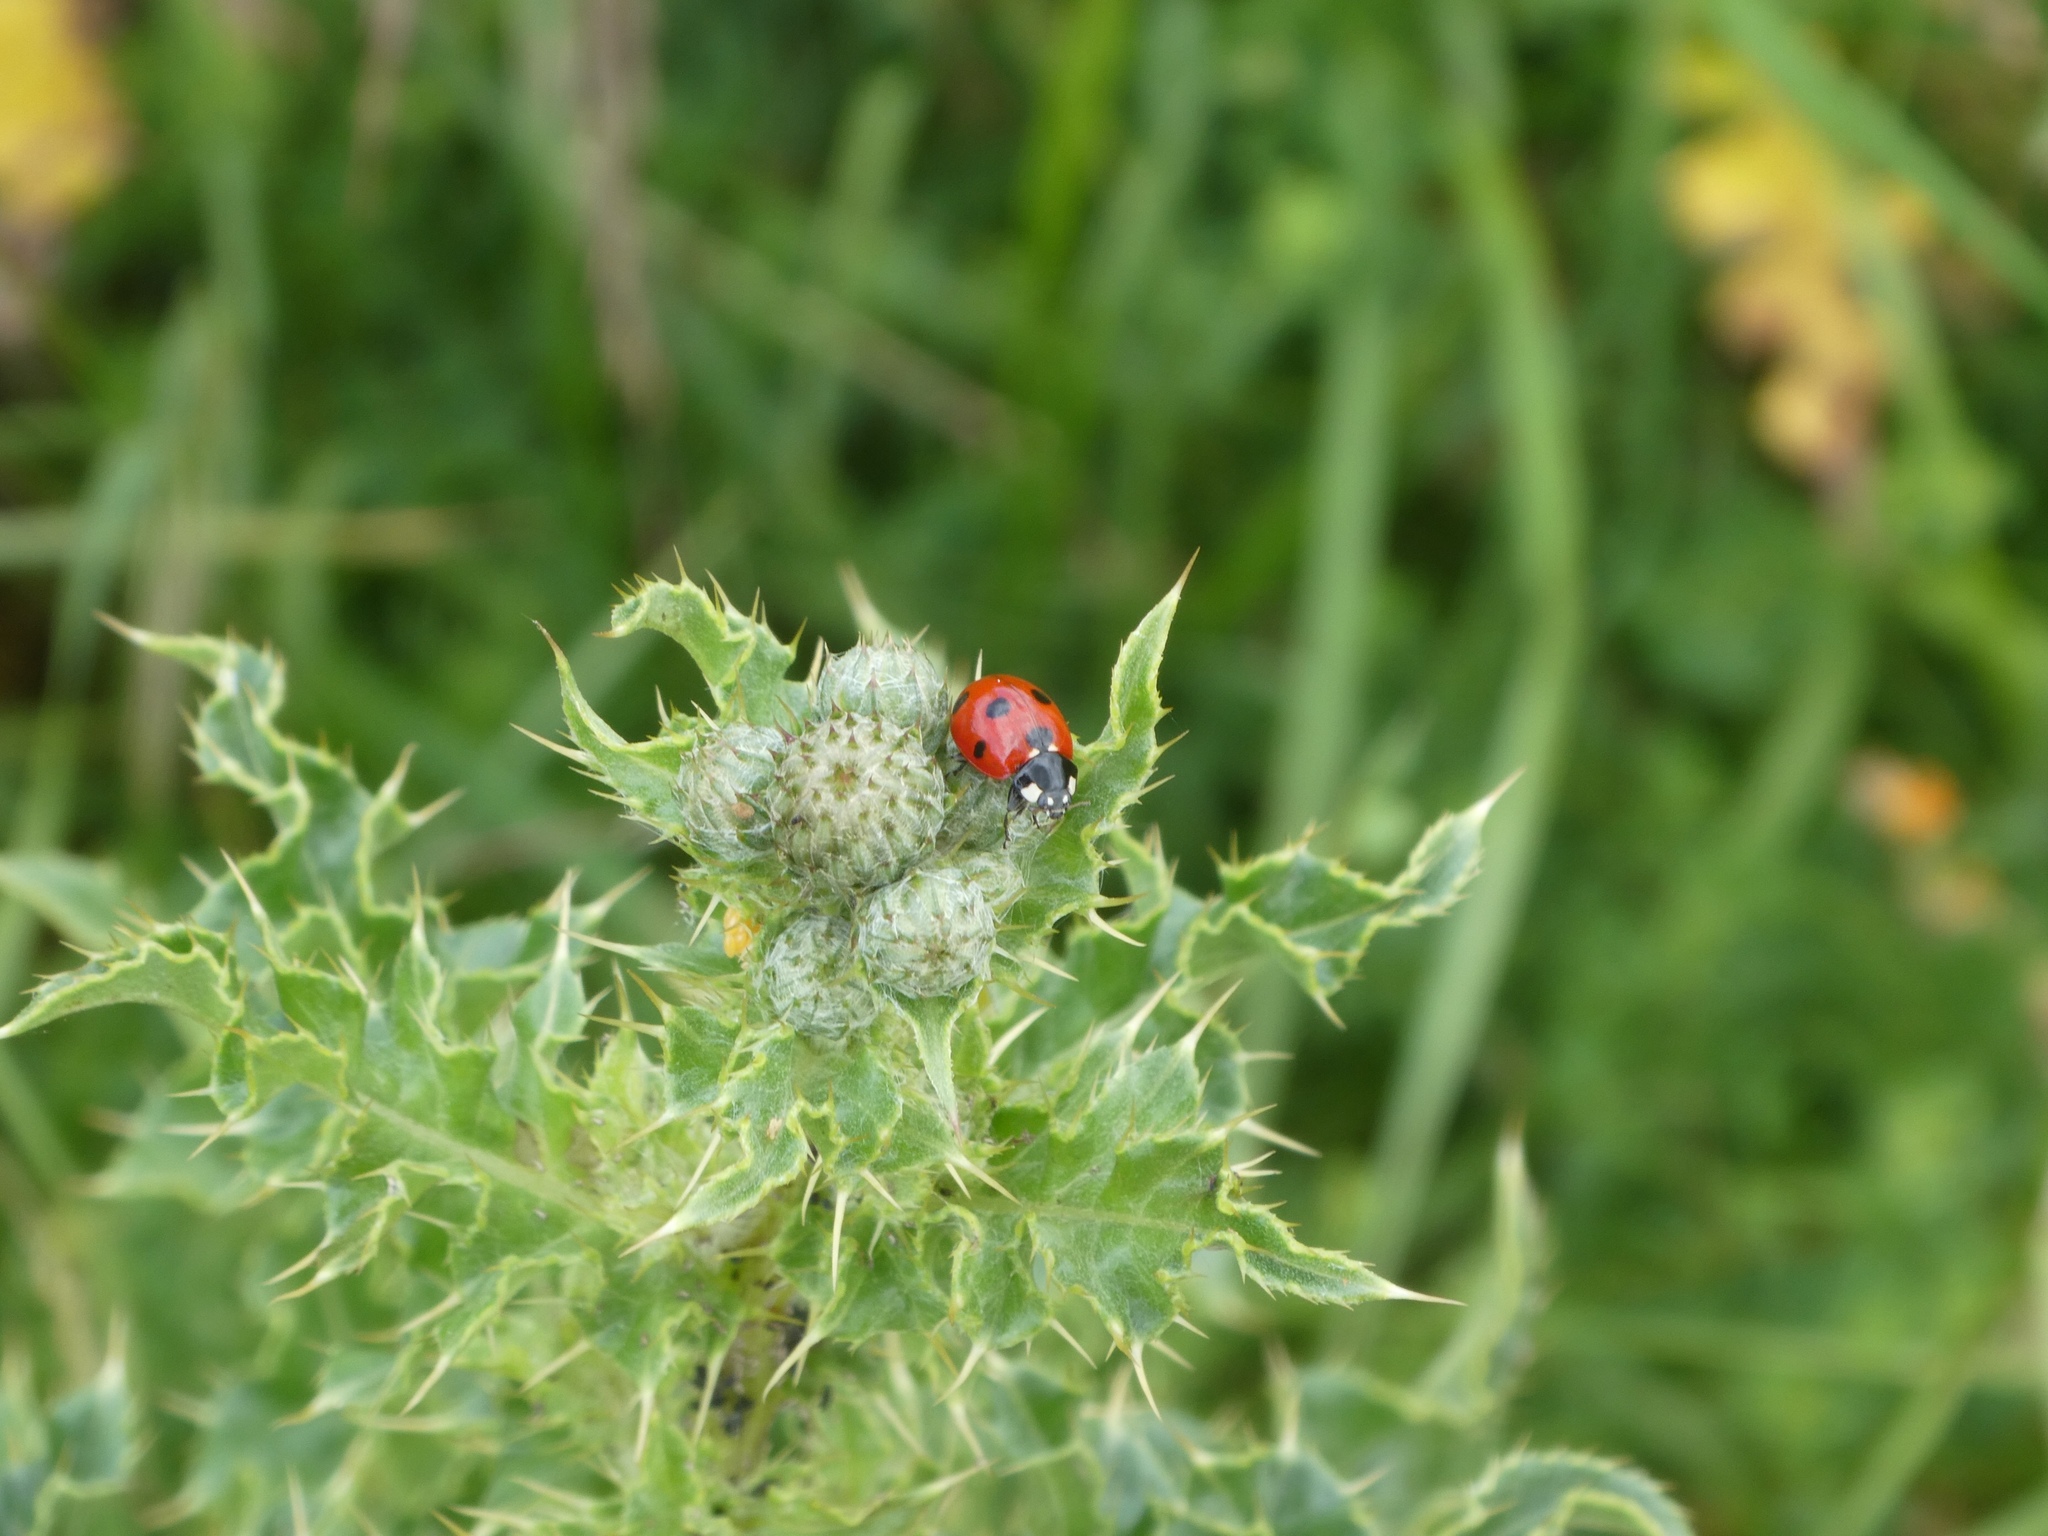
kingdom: Animalia
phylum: Arthropoda
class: Insecta
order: Coleoptera
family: Coccinellidae
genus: Coccinella
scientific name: Coccinella septempunctata
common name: Sevenspotted lady beetle
